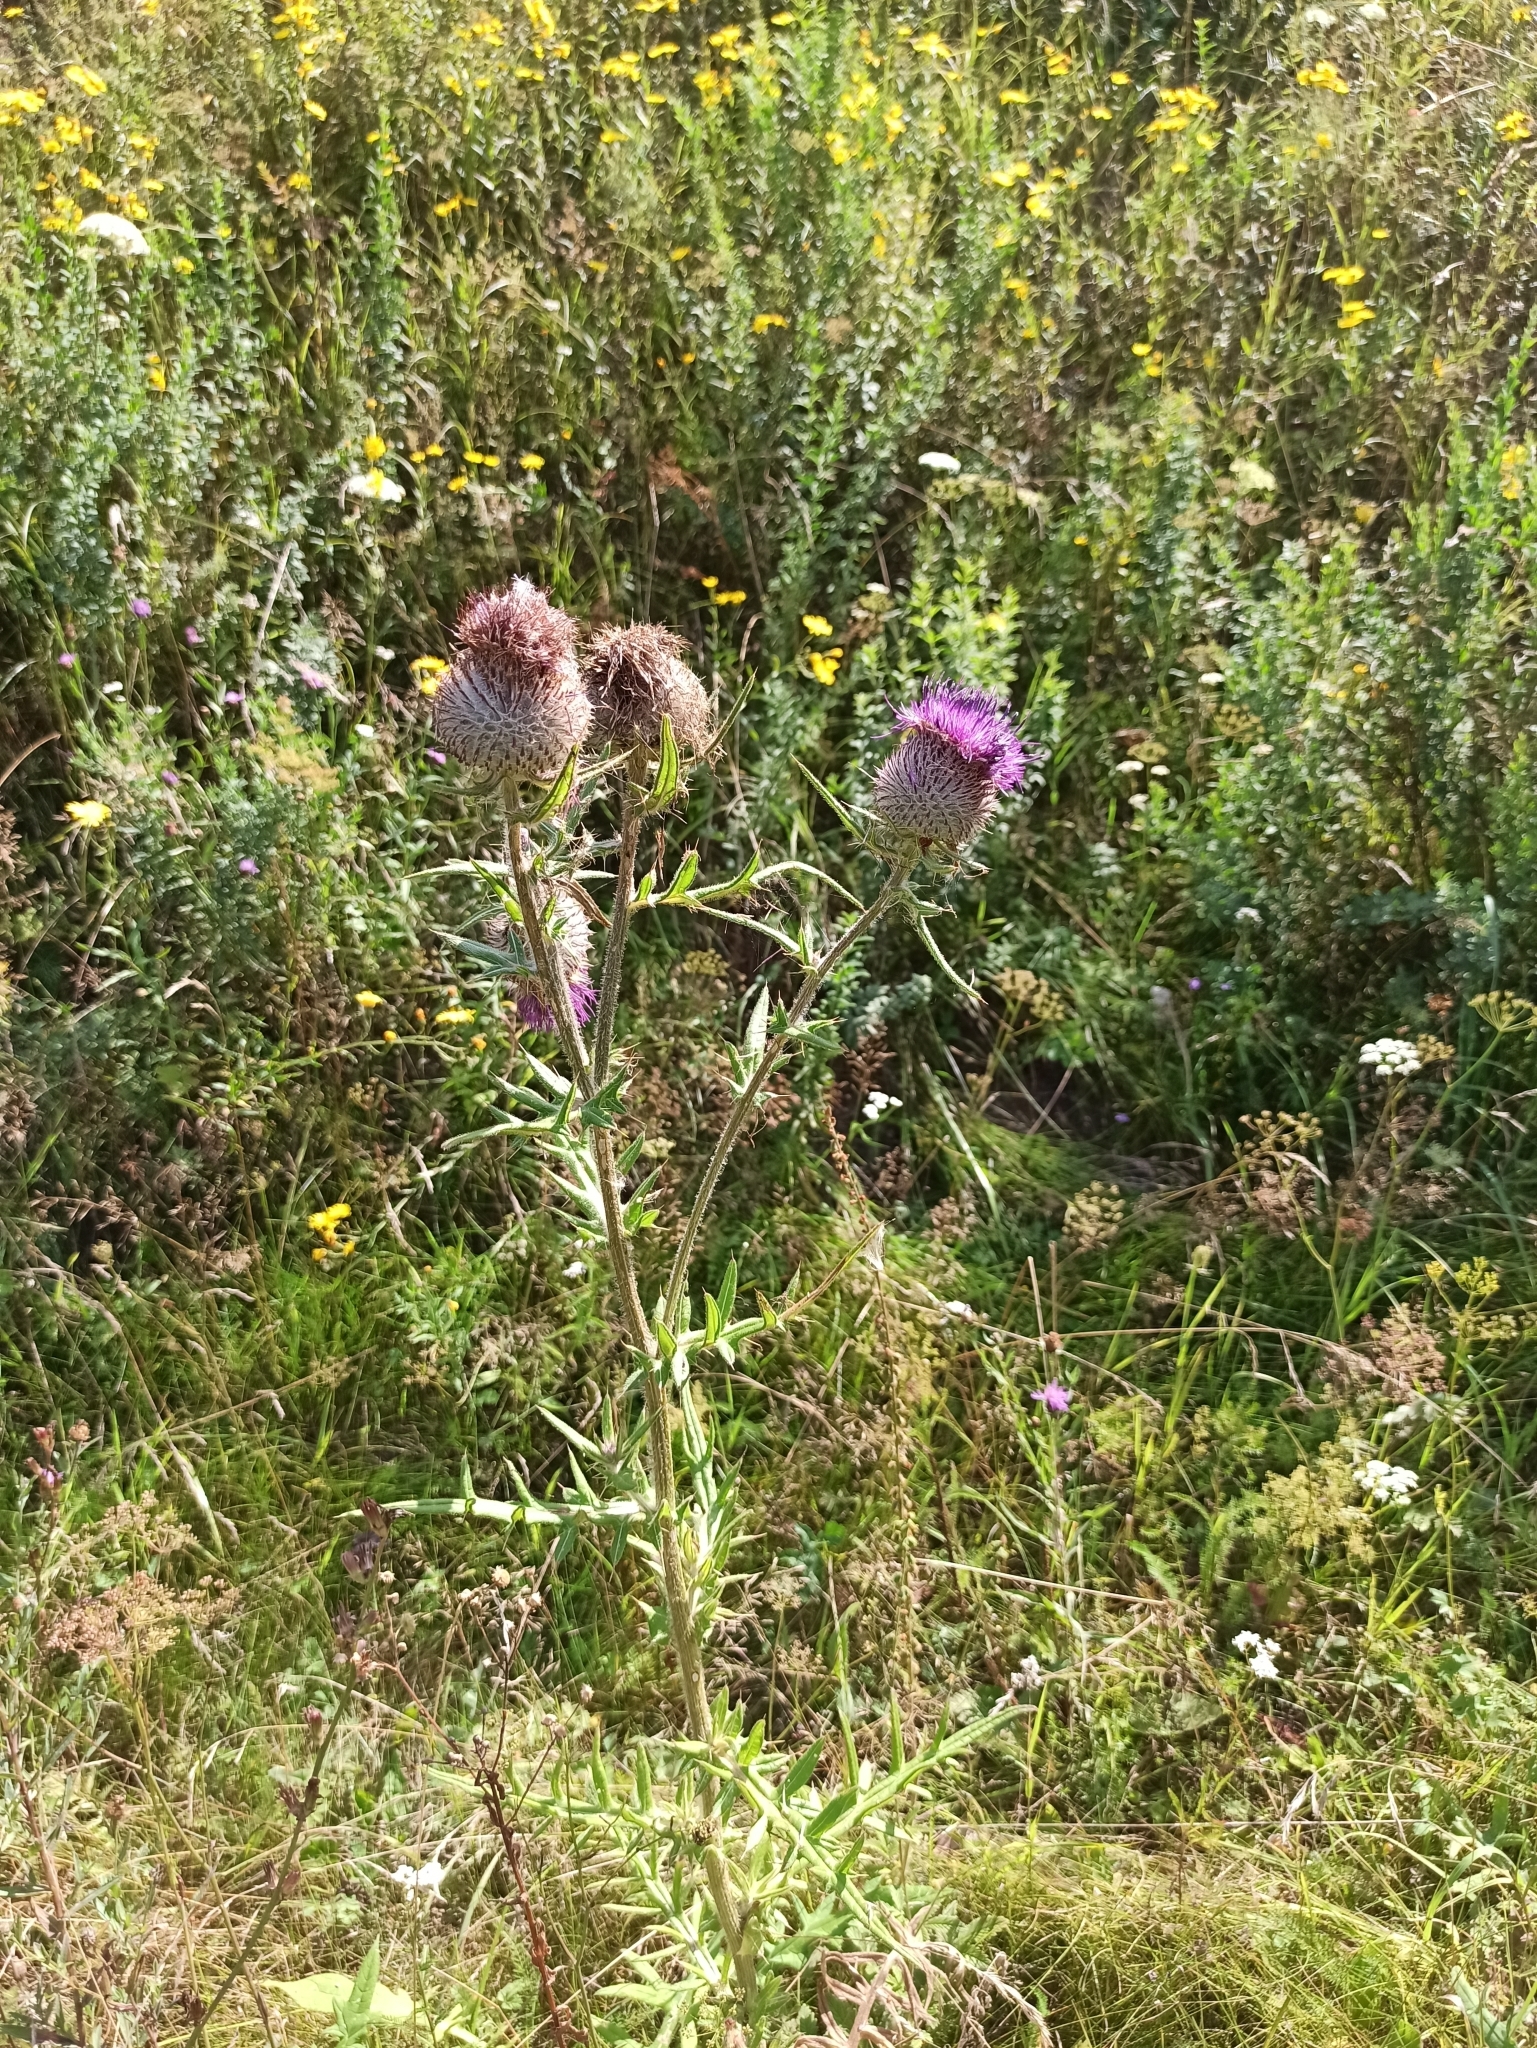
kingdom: Plantae
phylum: Tracheophyta
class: Magnoliopsida
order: Asterales
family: Asteraceae
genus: Lophiolepis
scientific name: Lophiolepis decussata
